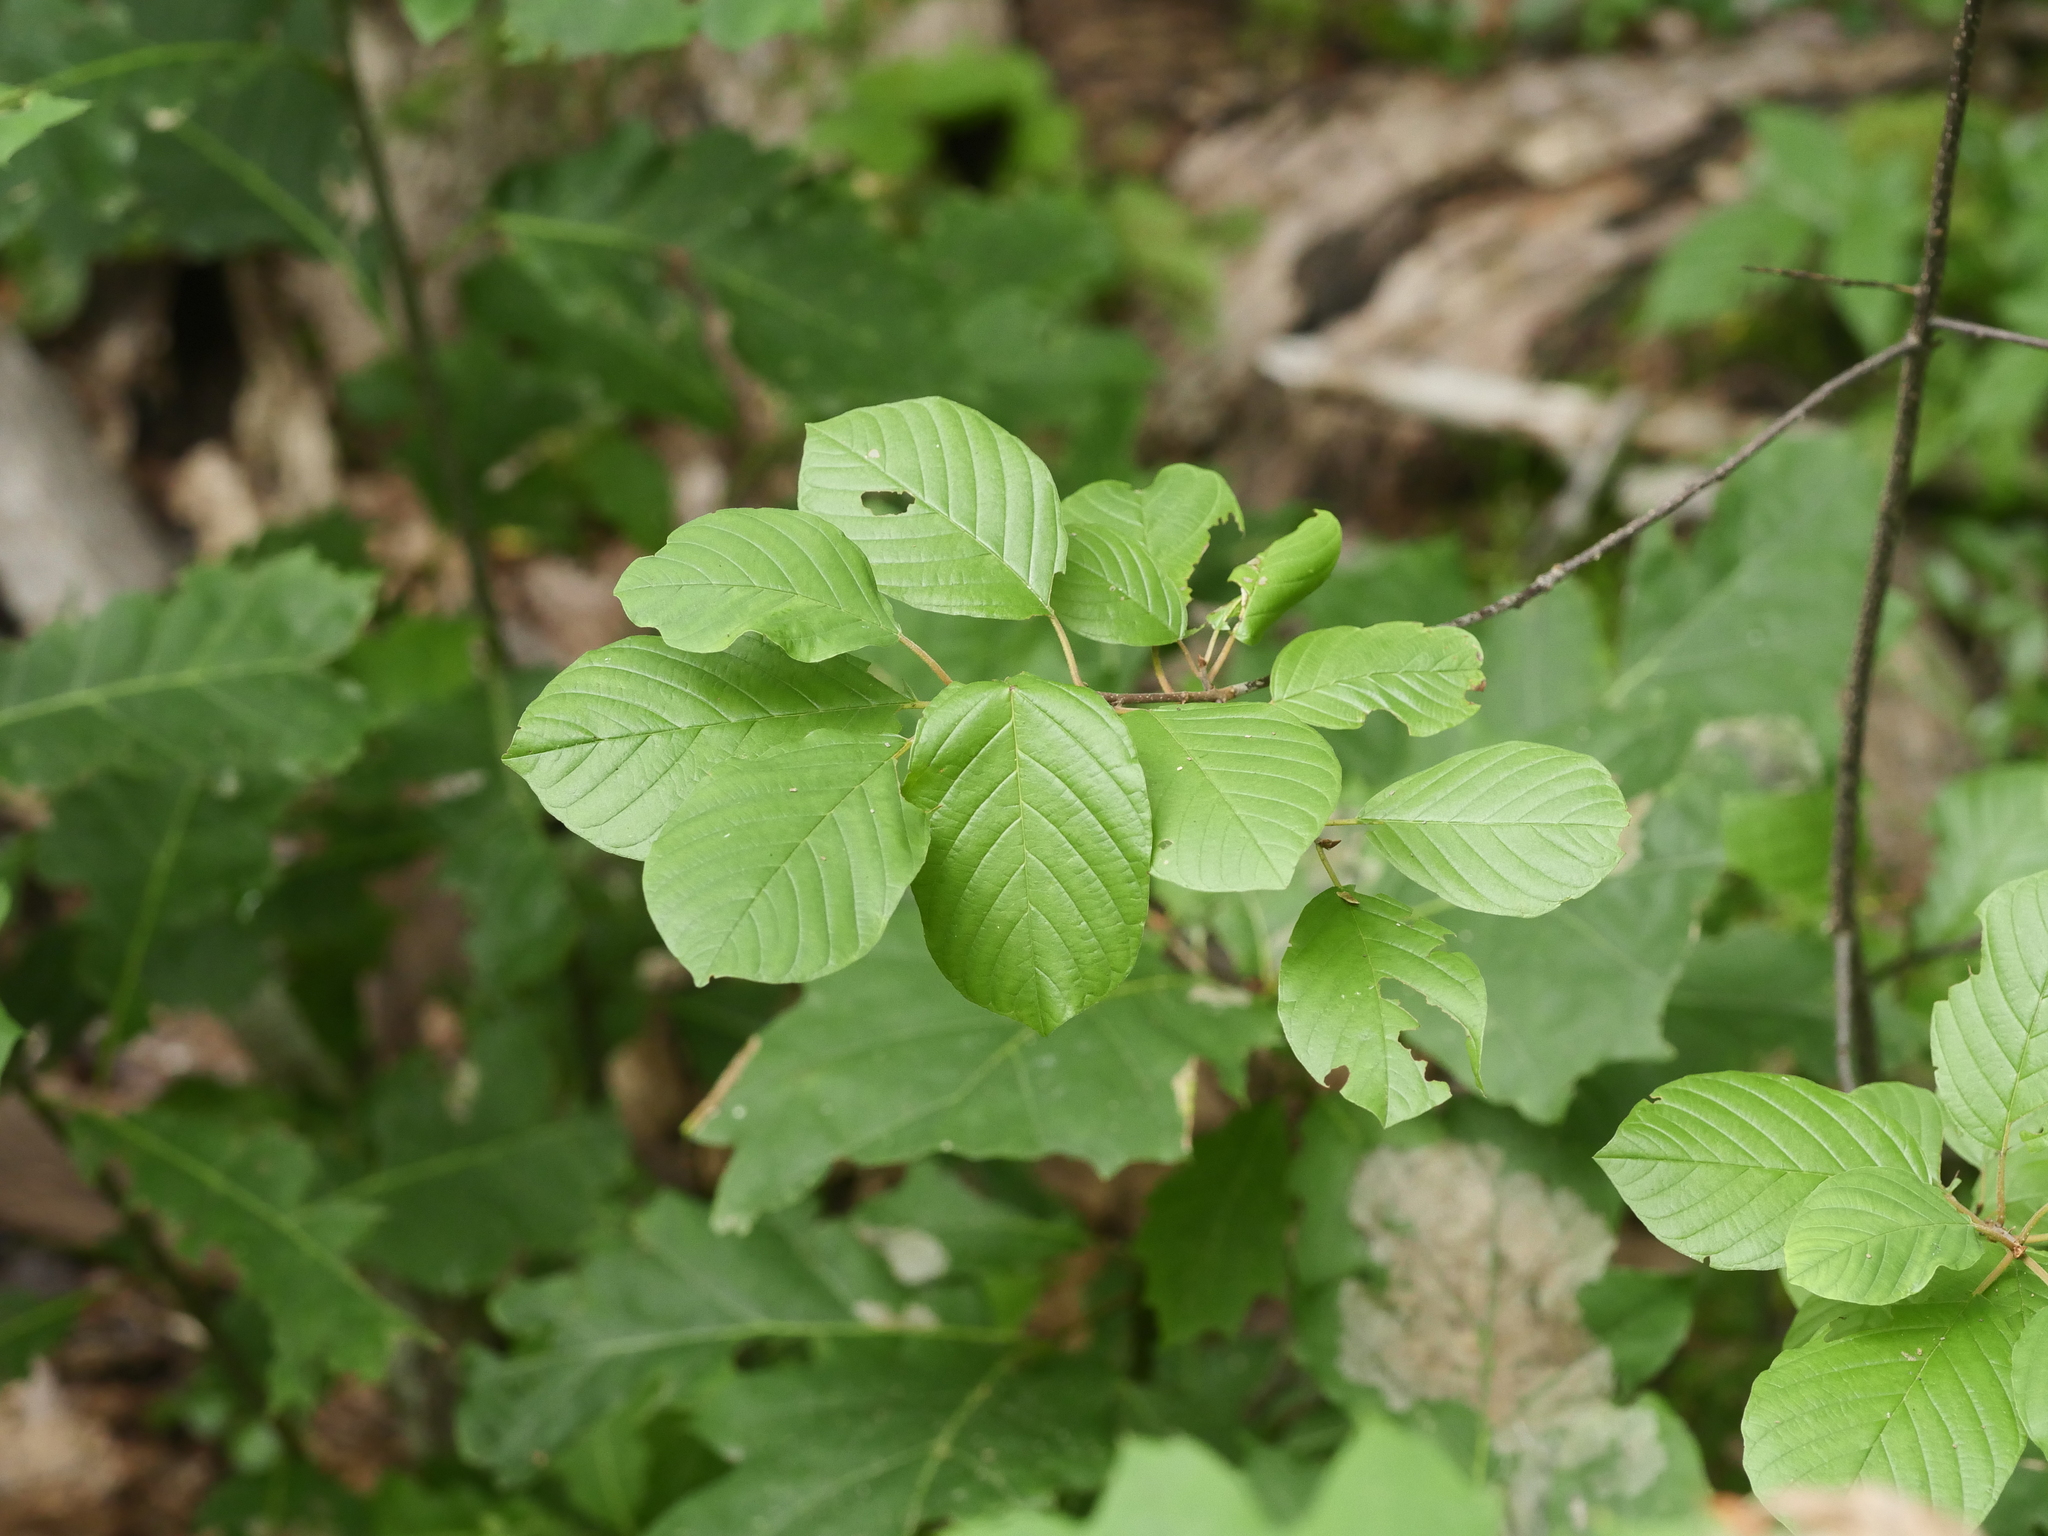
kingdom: Plantae
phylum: Tracheophyta
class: Magnoliopsida
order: Rosales
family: Rhamnaceae
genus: Frangula
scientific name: Frangula alnus
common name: Alder buckthorn
